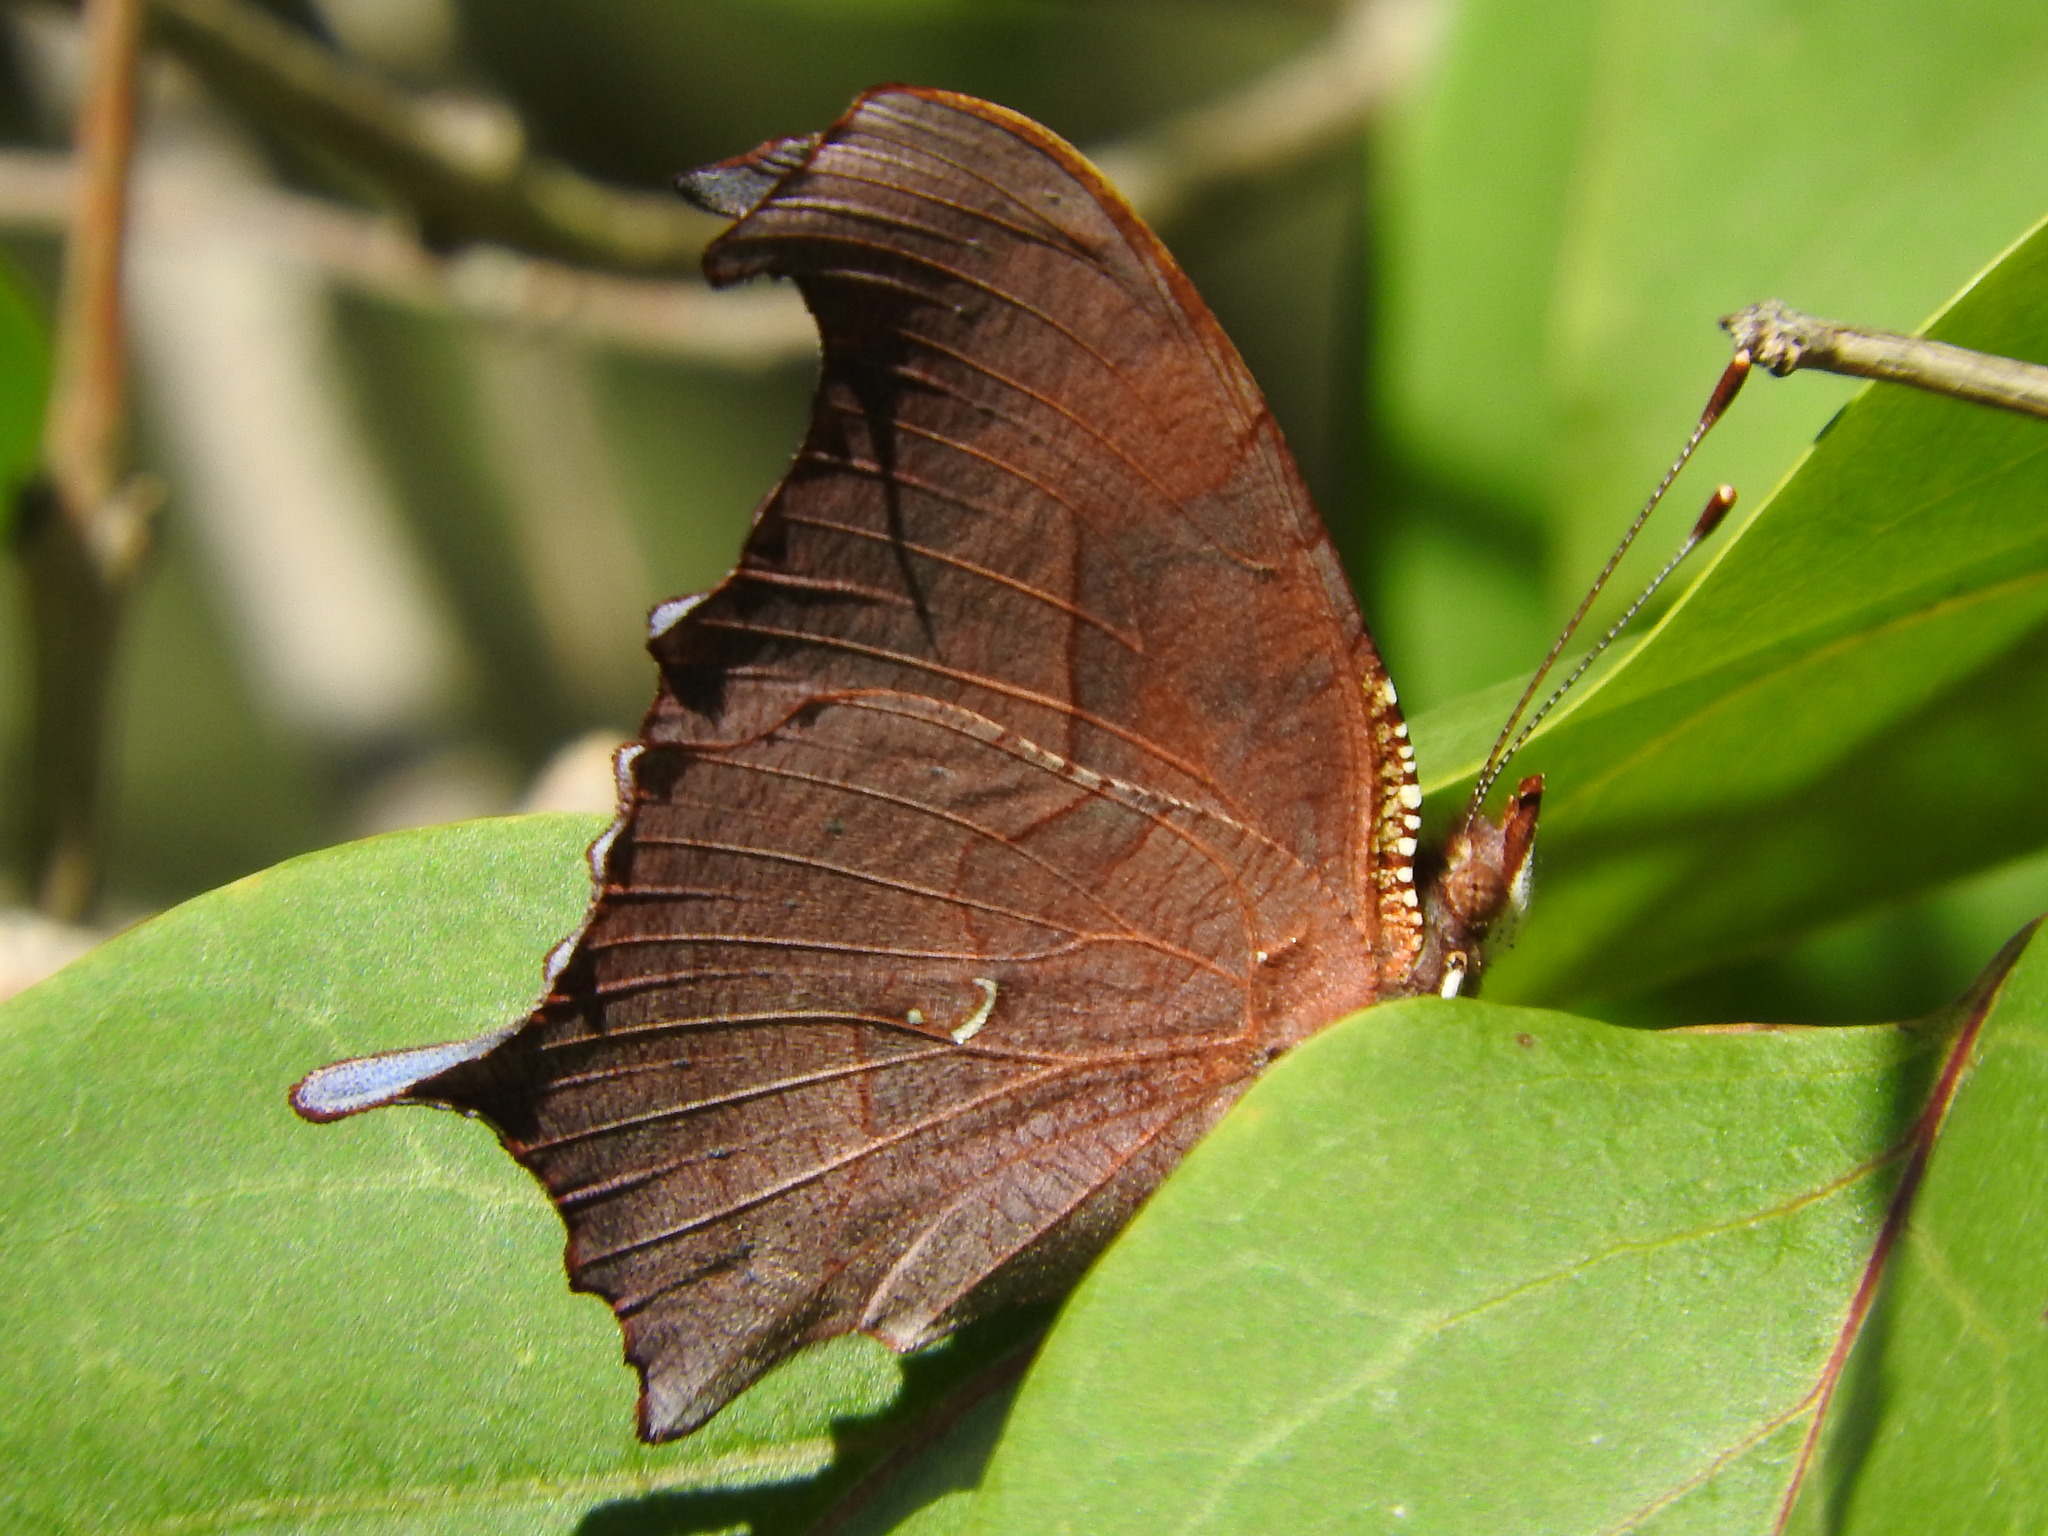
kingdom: Animalia
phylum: Arthropoda
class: Insecta
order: Lepidoptera
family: Nymphalidae
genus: Polygonia
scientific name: Polygonia interrogationis
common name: Question mark
